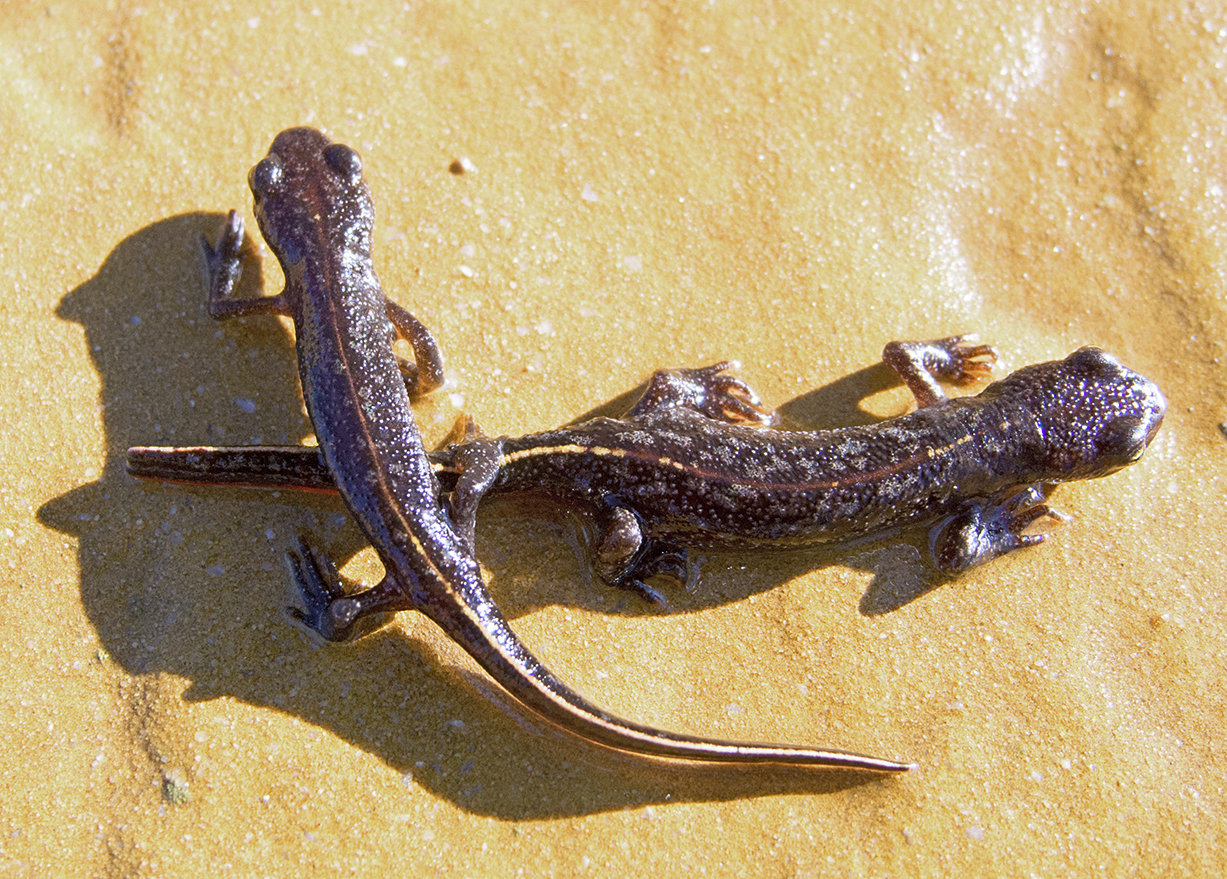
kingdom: Animalia
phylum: Chordata
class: Amphibia
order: Caudata
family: Salamandridae
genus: Triturus
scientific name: Triturus ivanbureschi
